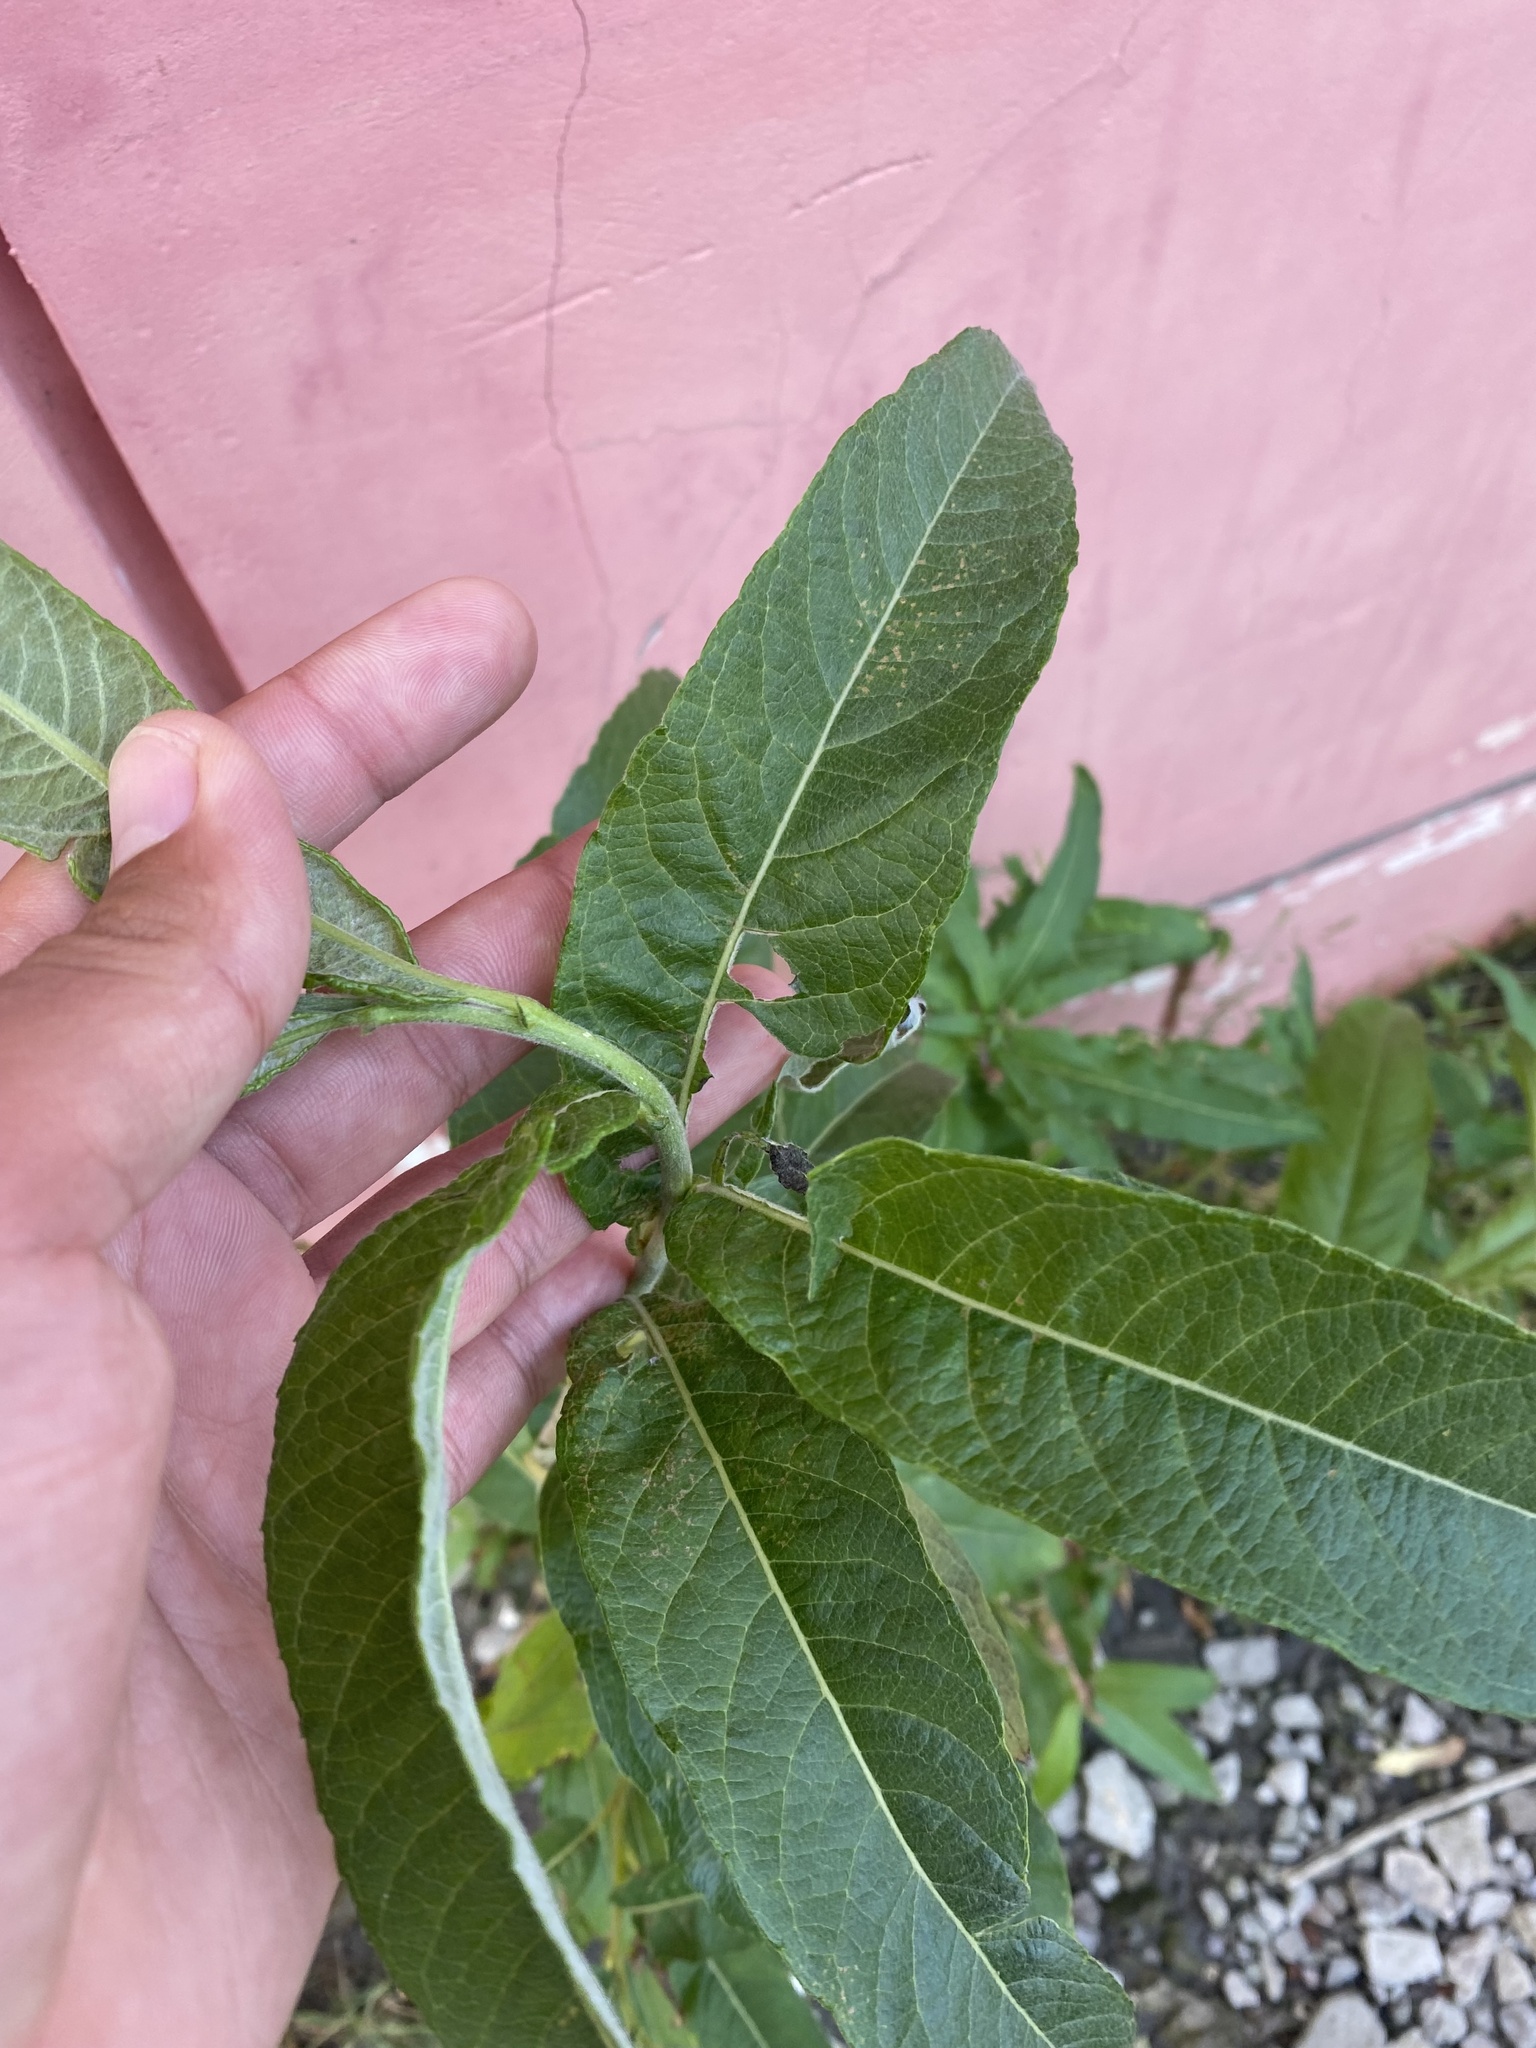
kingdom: Plantae
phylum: Tracheophyta
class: Magnoliopsida
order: Malpighiales
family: Salicaceae
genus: Salix
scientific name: Salix lanata
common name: Woolly willow
